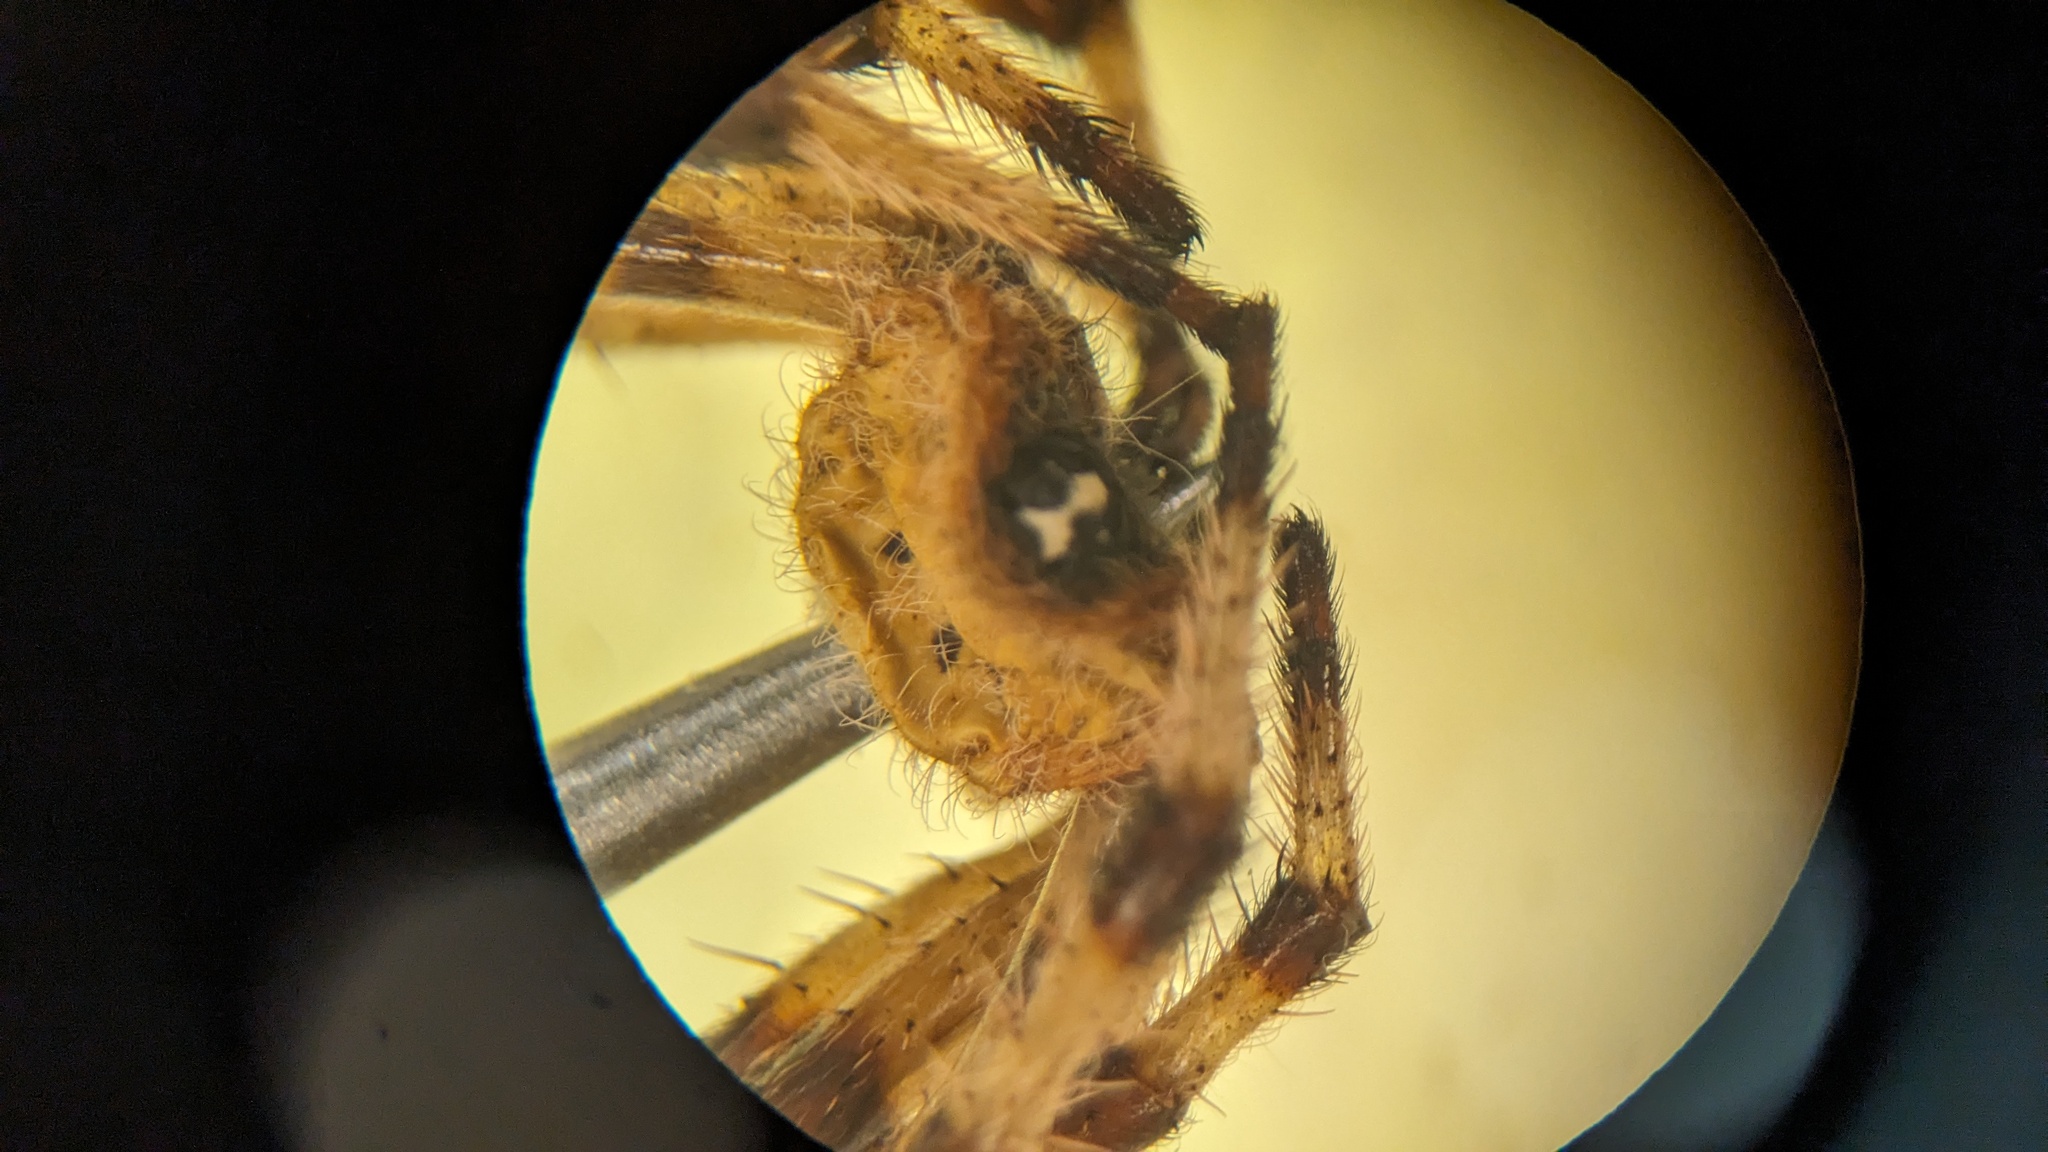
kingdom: Animalia
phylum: Arthropoda
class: Arachnida
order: Araneae
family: Araneidae
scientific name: Araneidae
